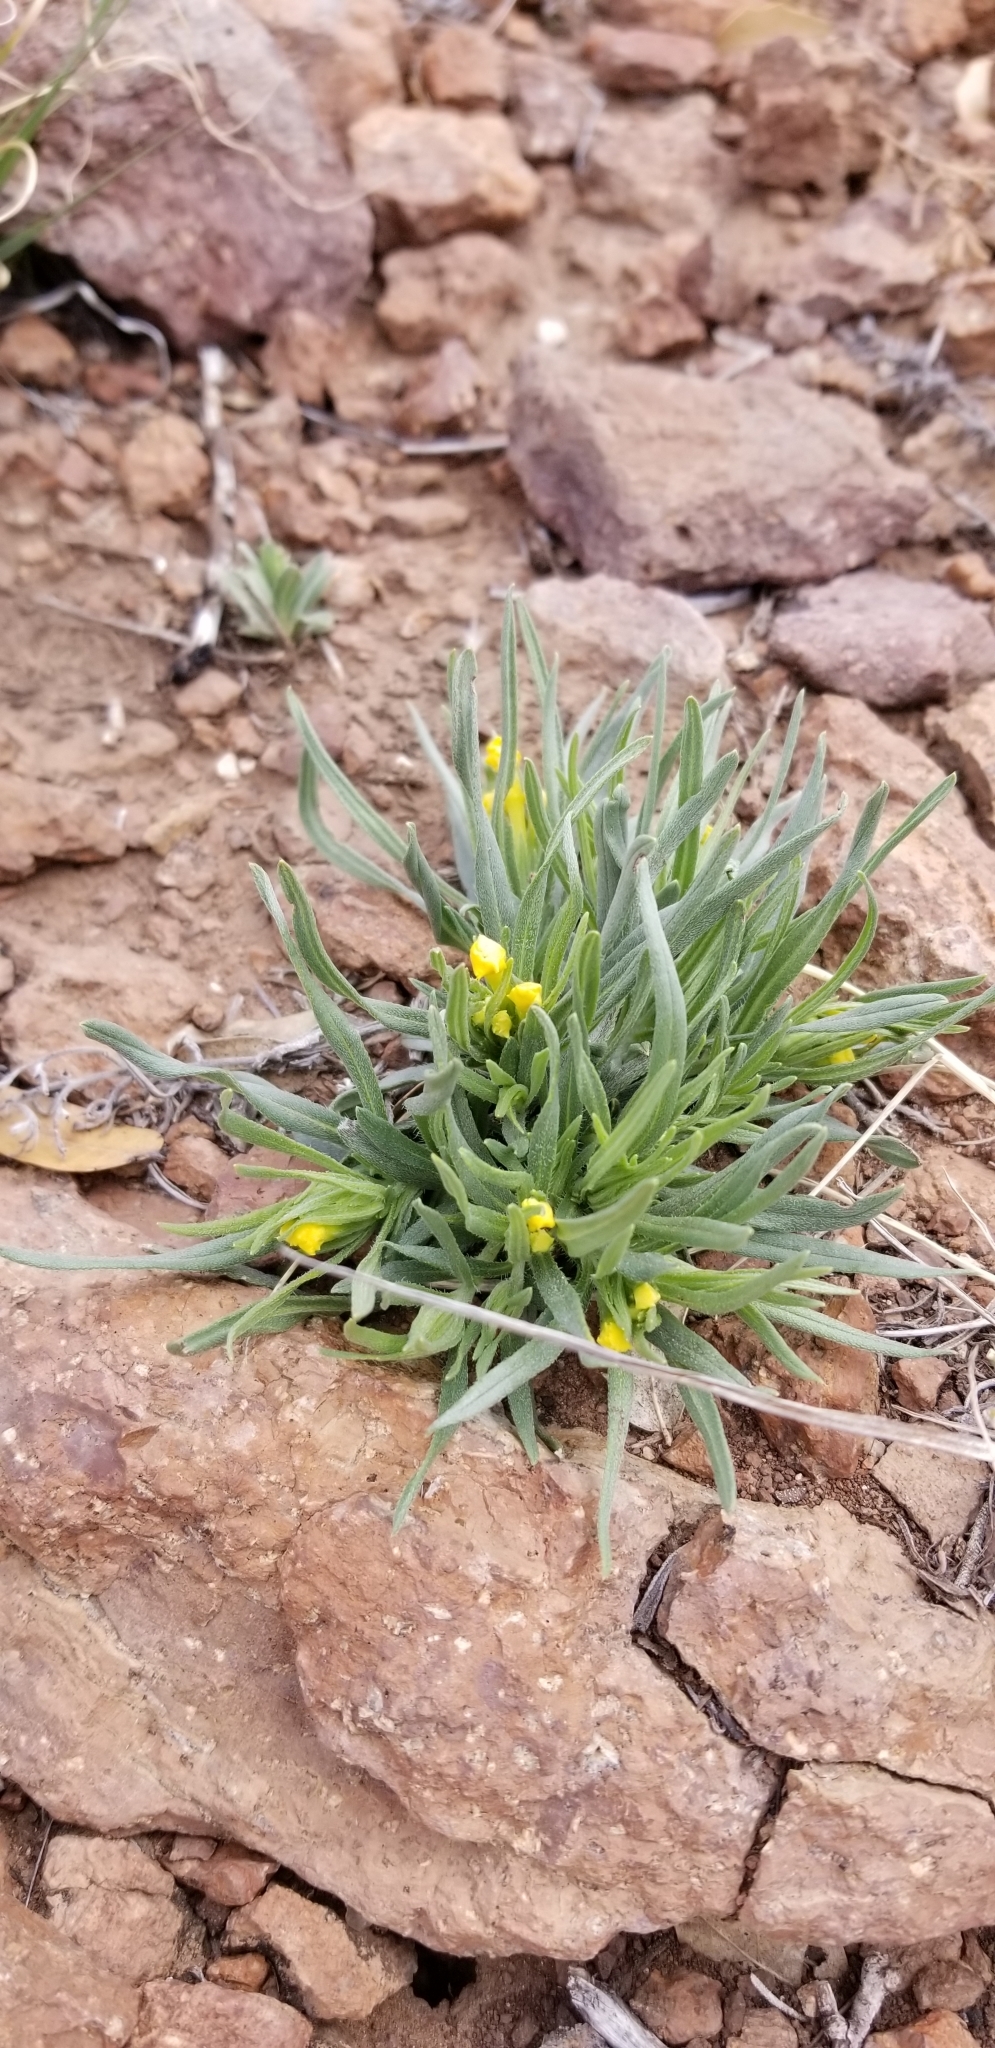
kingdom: Plantae
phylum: Tracheophyta
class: Magnoliopsida
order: Boraginales
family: Boraginaceae
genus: Lithospermum
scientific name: Lithospermum incisum
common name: Fringed gromwell
